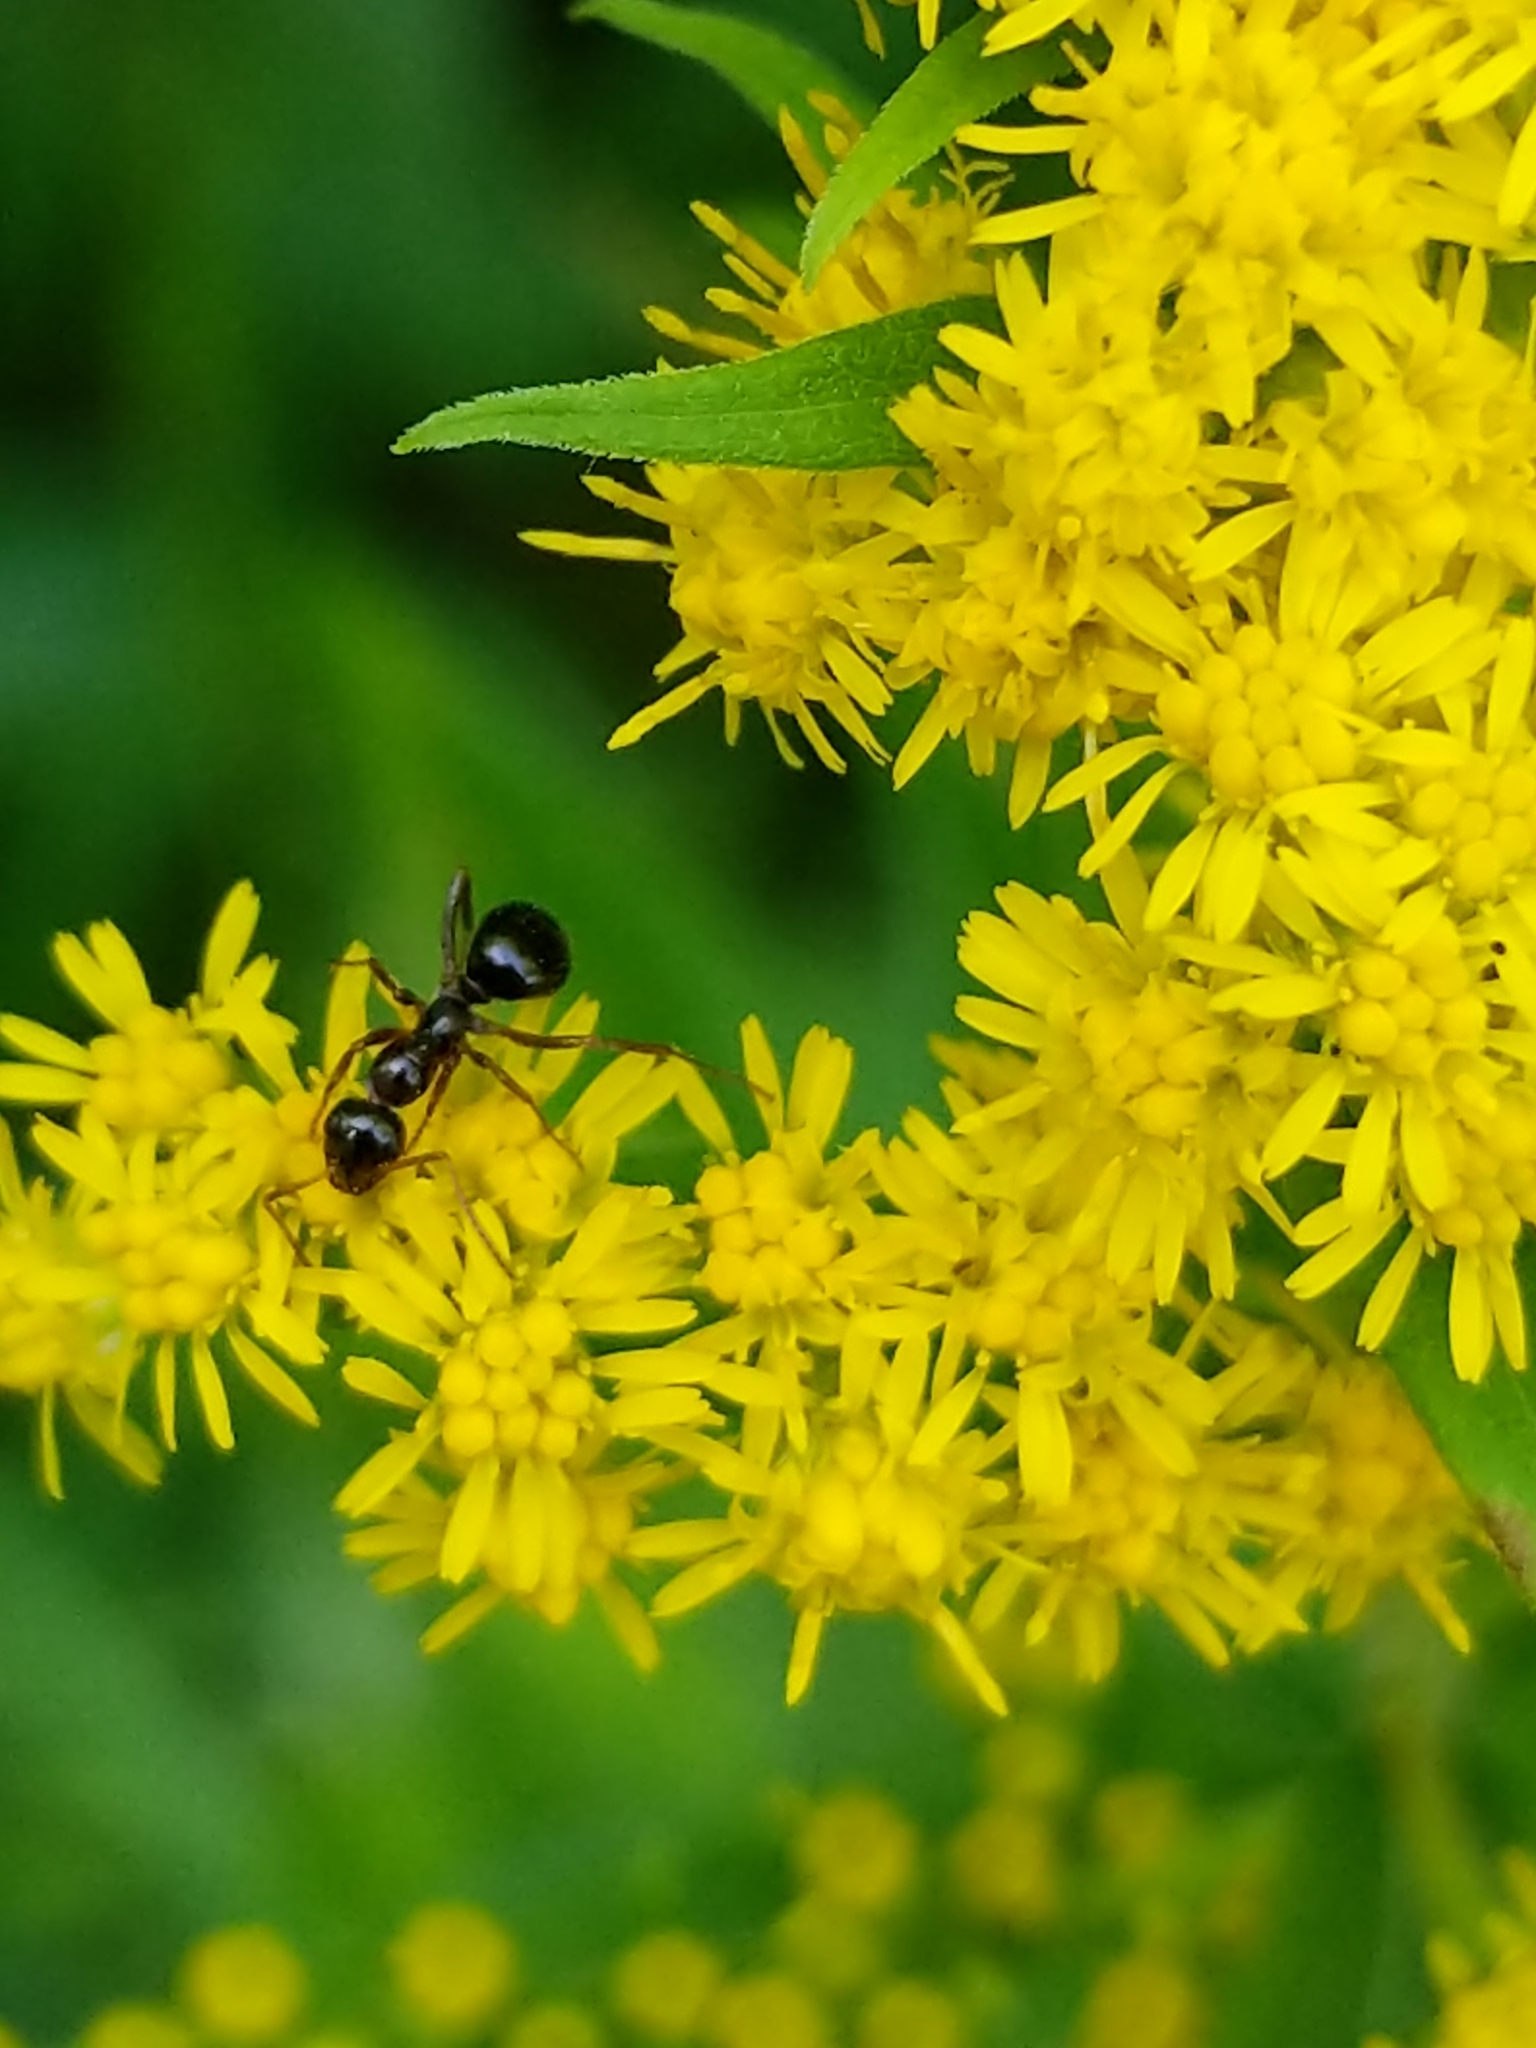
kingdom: Animalia
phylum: Arthropoda
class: Insecta
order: Hymenoptera
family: Formicidae
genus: Formica
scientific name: Formica
